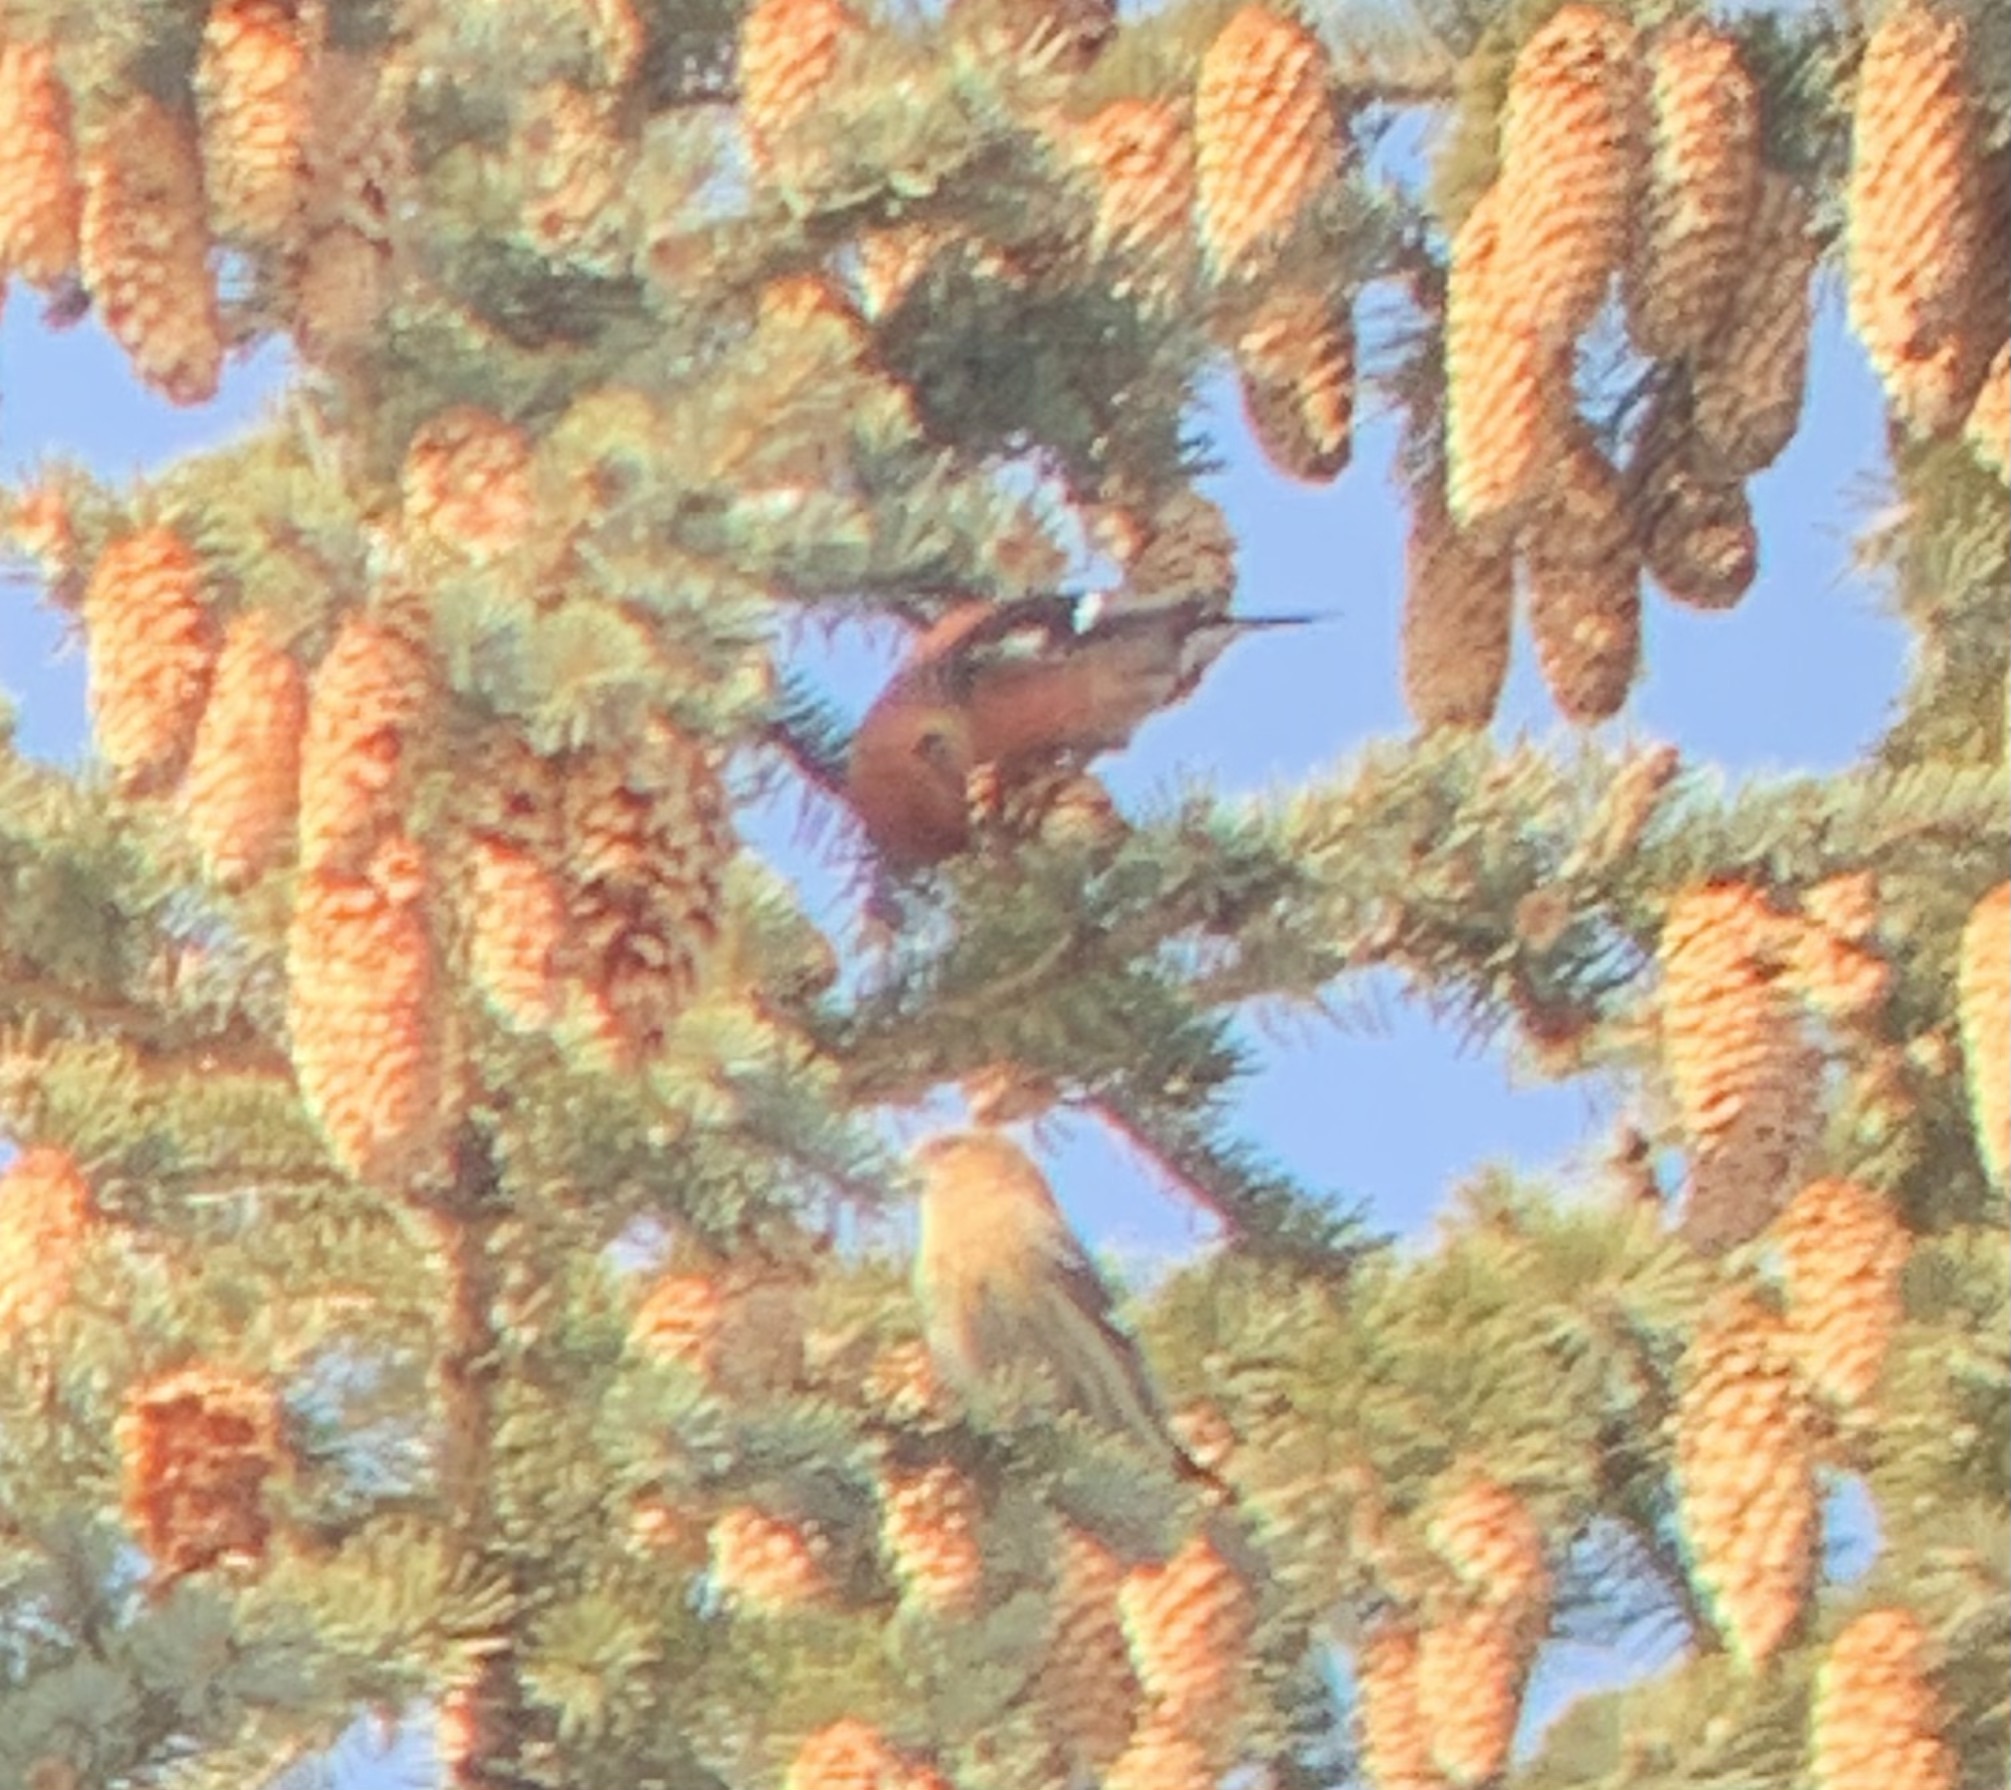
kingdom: Animalia
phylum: Chordata
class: Aves
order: Passeriformes
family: Fringillidae
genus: Loxia
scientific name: Loxia leucoptera
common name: Two-barred crossbill
